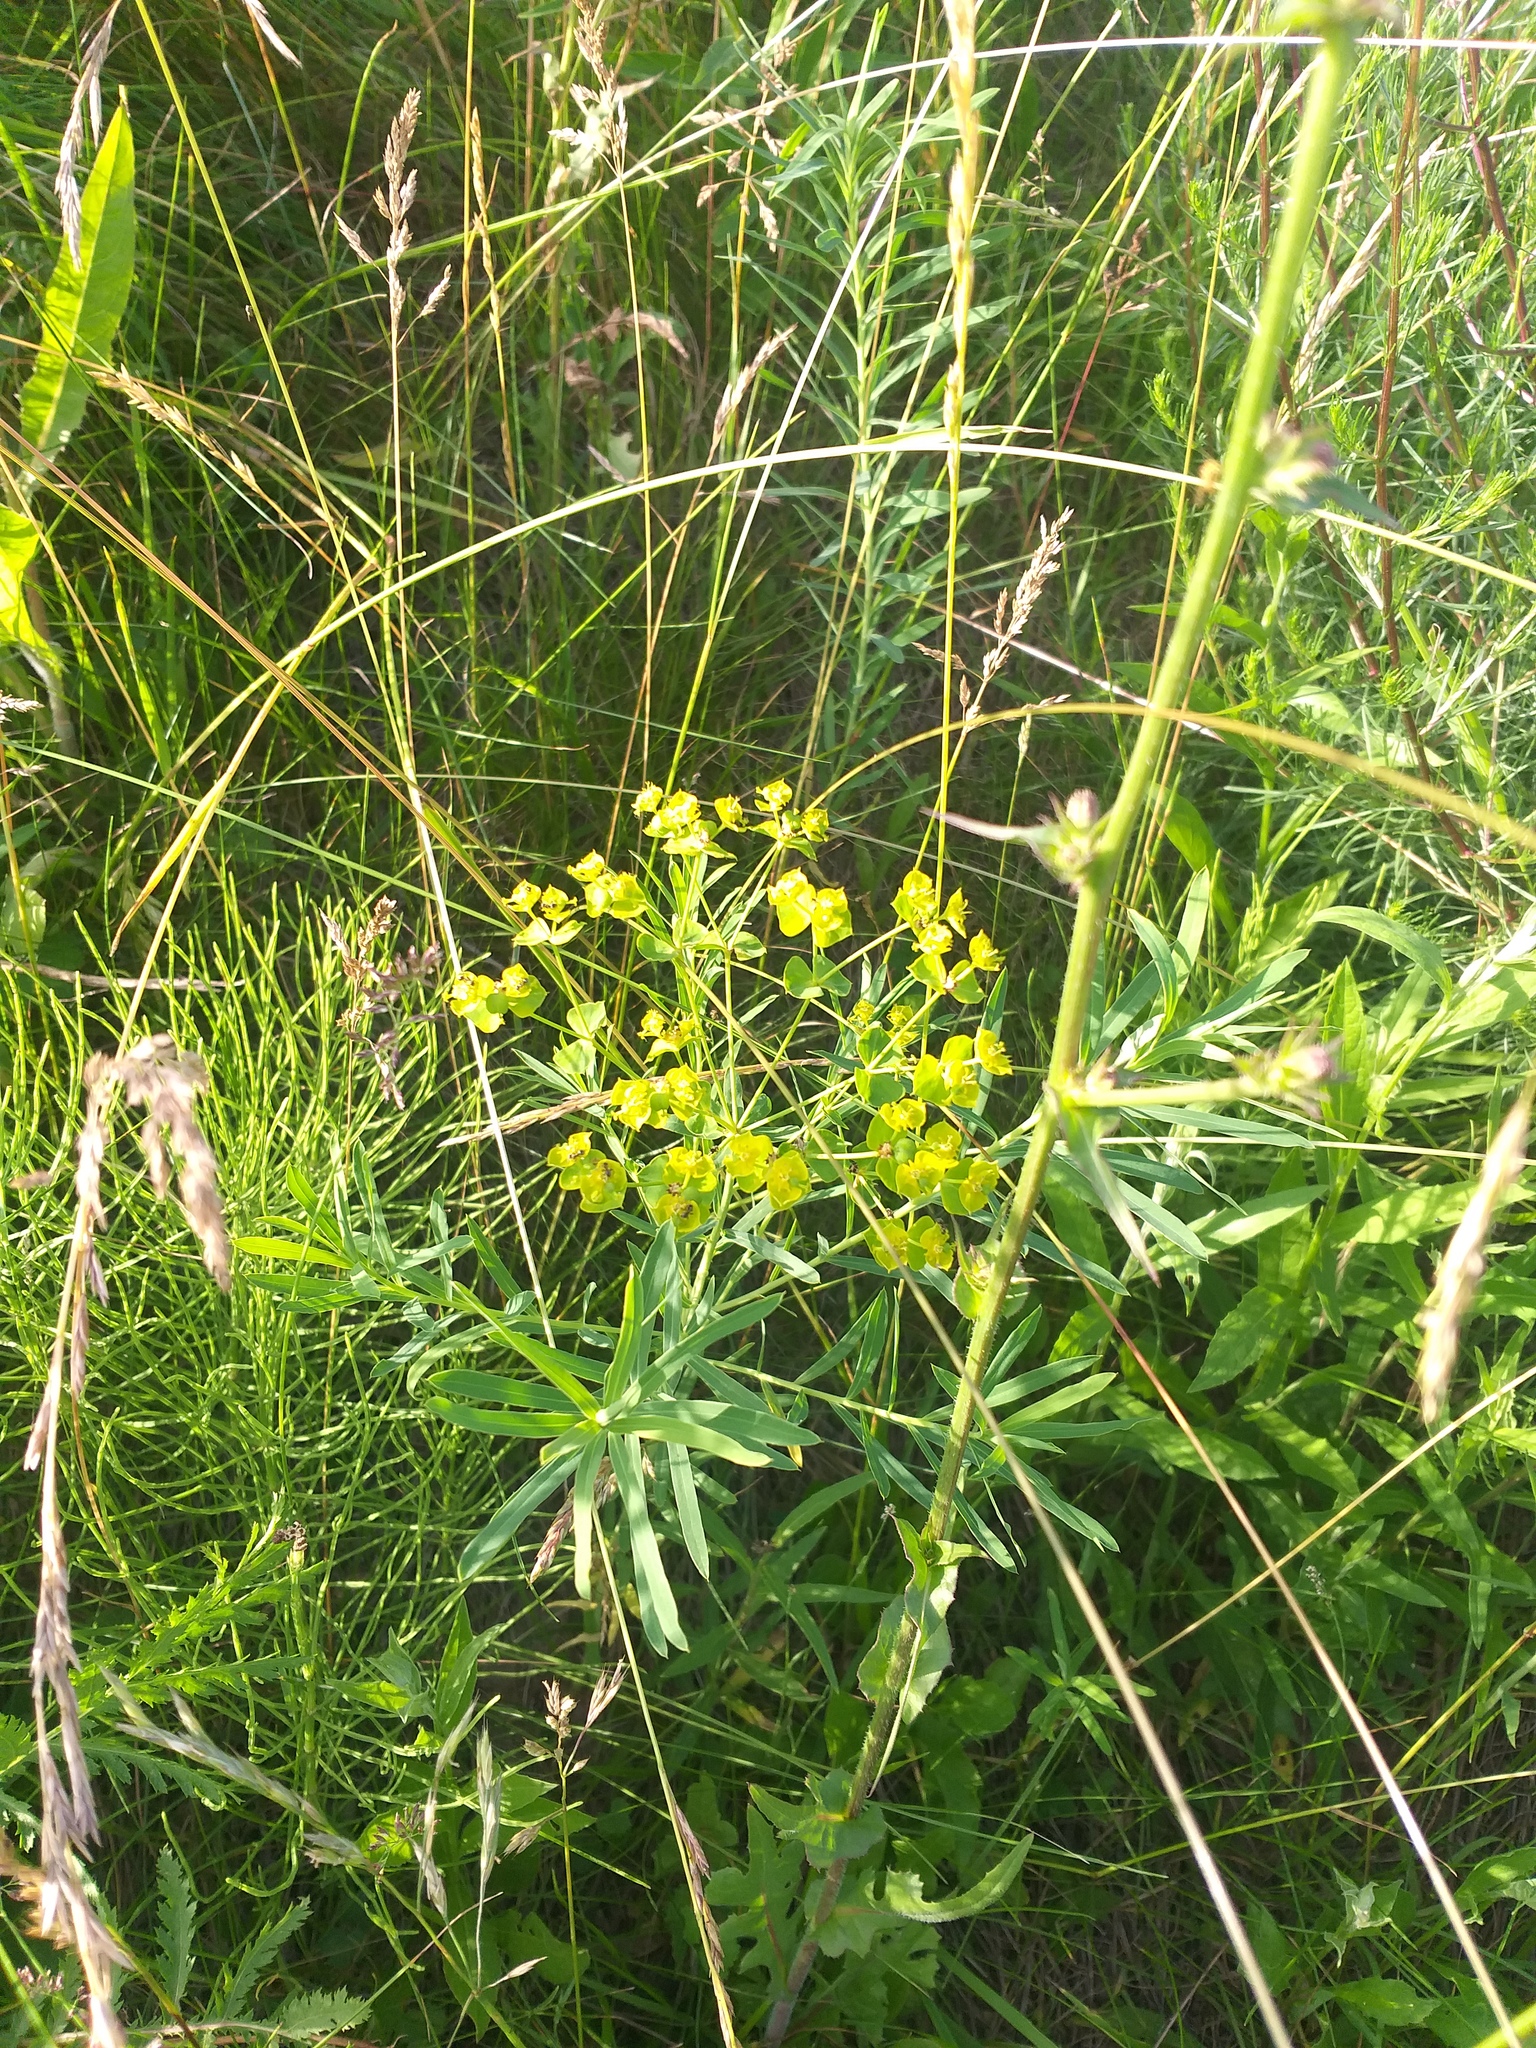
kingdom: Plantae
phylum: Tracheophyta
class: Magnoliopsida
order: Malpighiales
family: Euphorbiaceae
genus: Euphorbia
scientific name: Euphorbia virgata
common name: Leafy spurge
